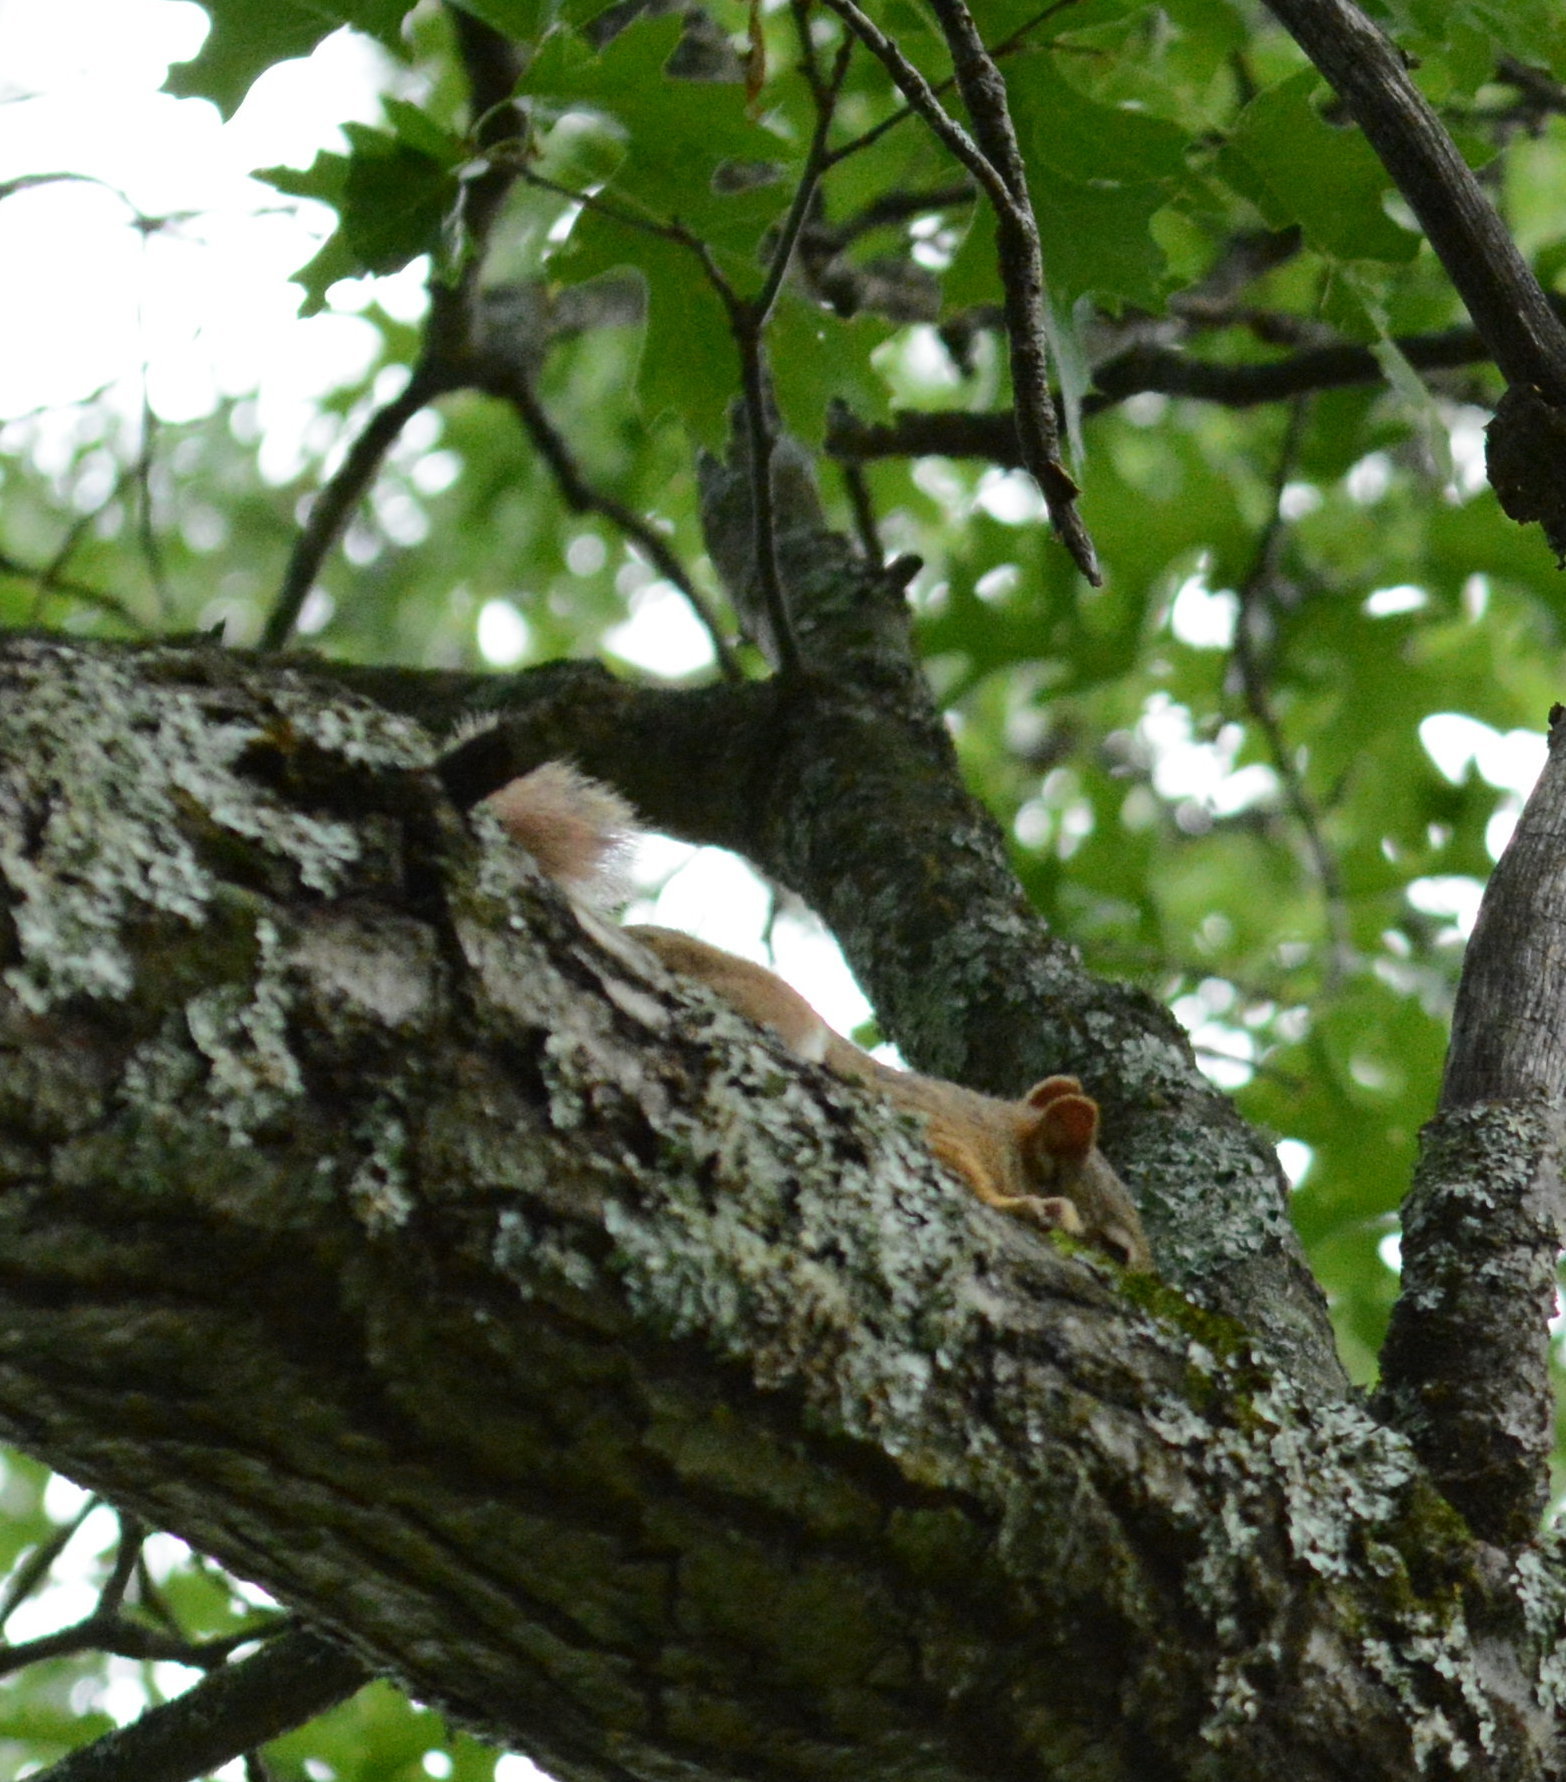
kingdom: Animalia
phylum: Chordata
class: Mammalia
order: Rodentia
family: Sciuridae
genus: Tamiasciurus
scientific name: Tamiasciurus hudsonicus
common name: Red squirrel
